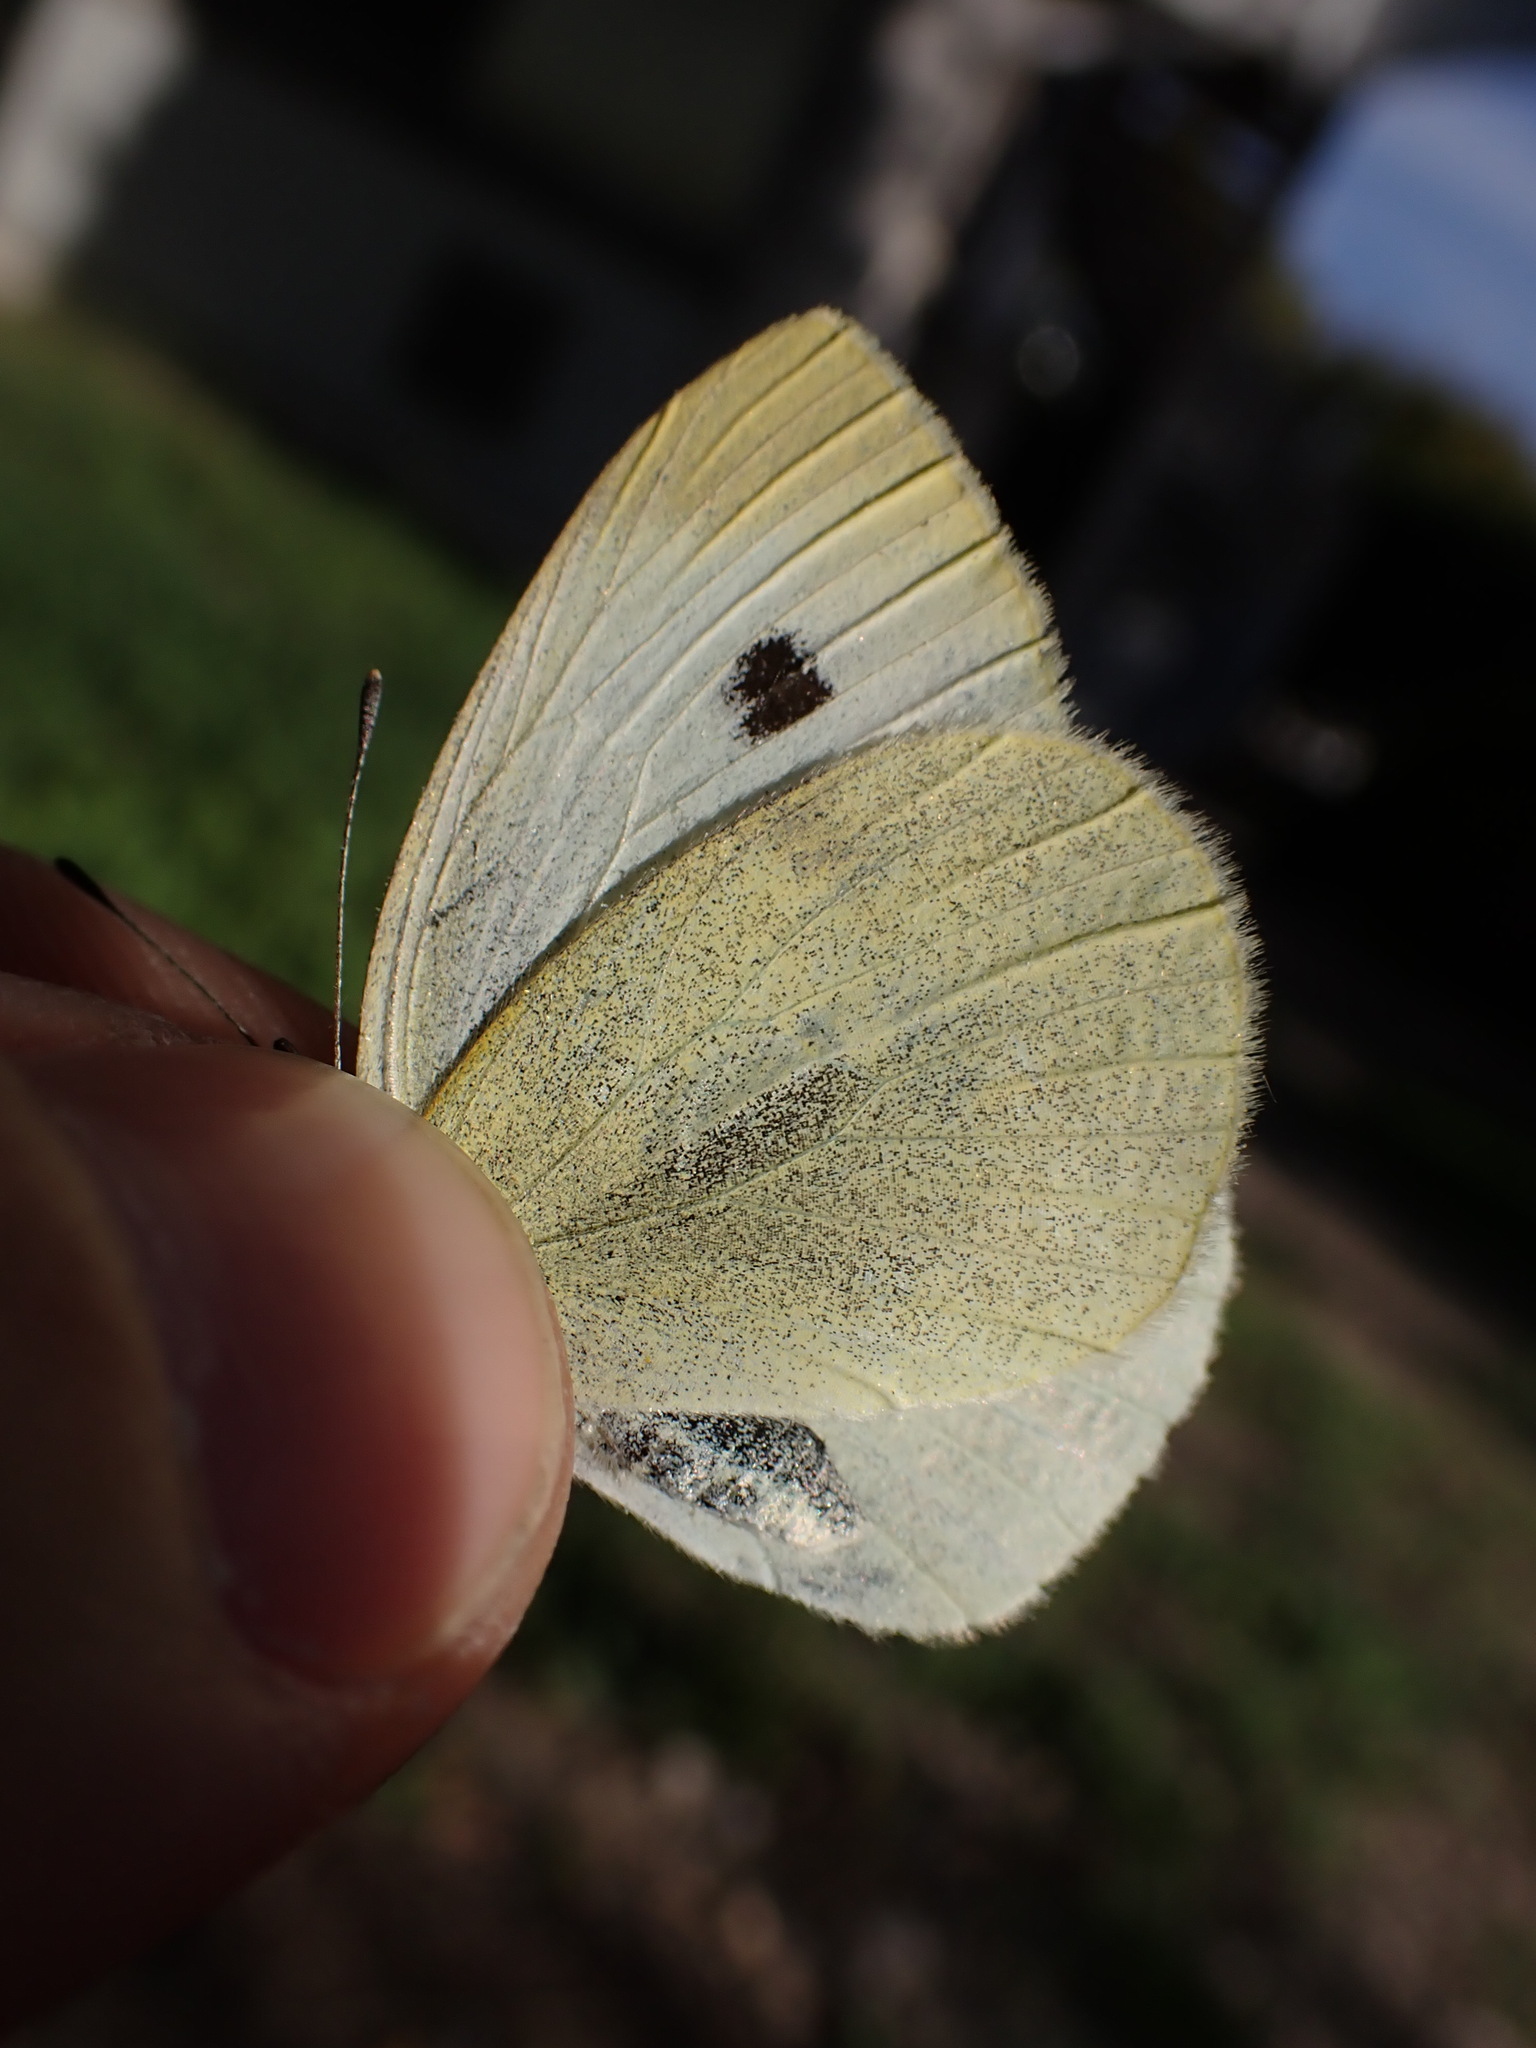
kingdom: Animalia
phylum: Arthropoda
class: Insecta
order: Lepidoptera
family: Pieridae
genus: Pieris
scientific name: Pieris rapae
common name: Small white
